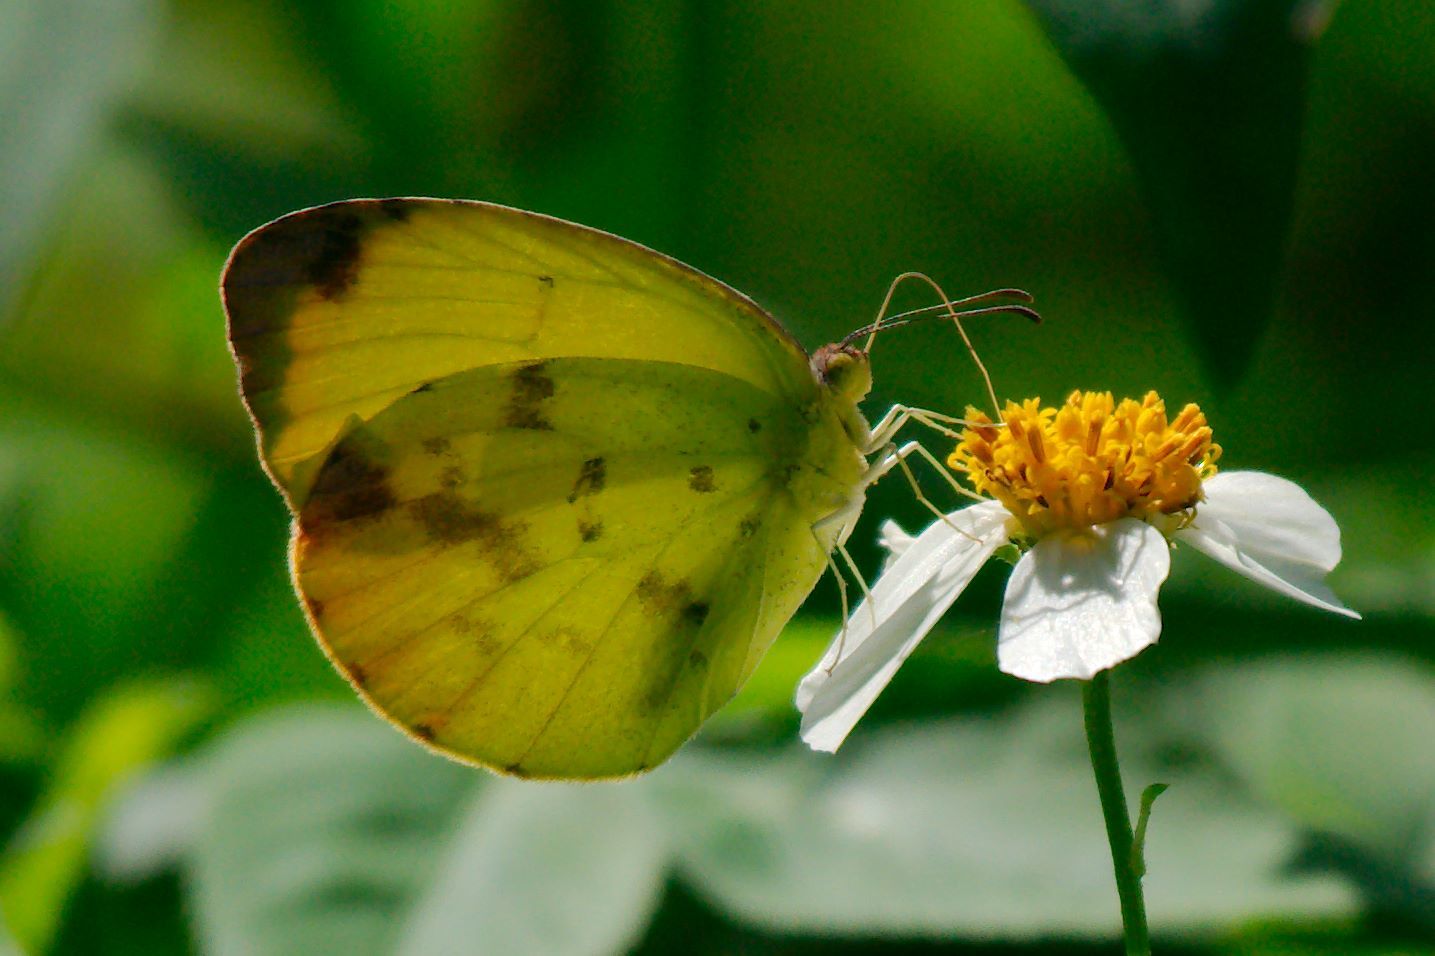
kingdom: Animalia
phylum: Arthropoda
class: Insecta
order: Lepidoptera
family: Pieridae
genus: Pyrisitia
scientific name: Pyrisitia dina
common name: Dina yellow
